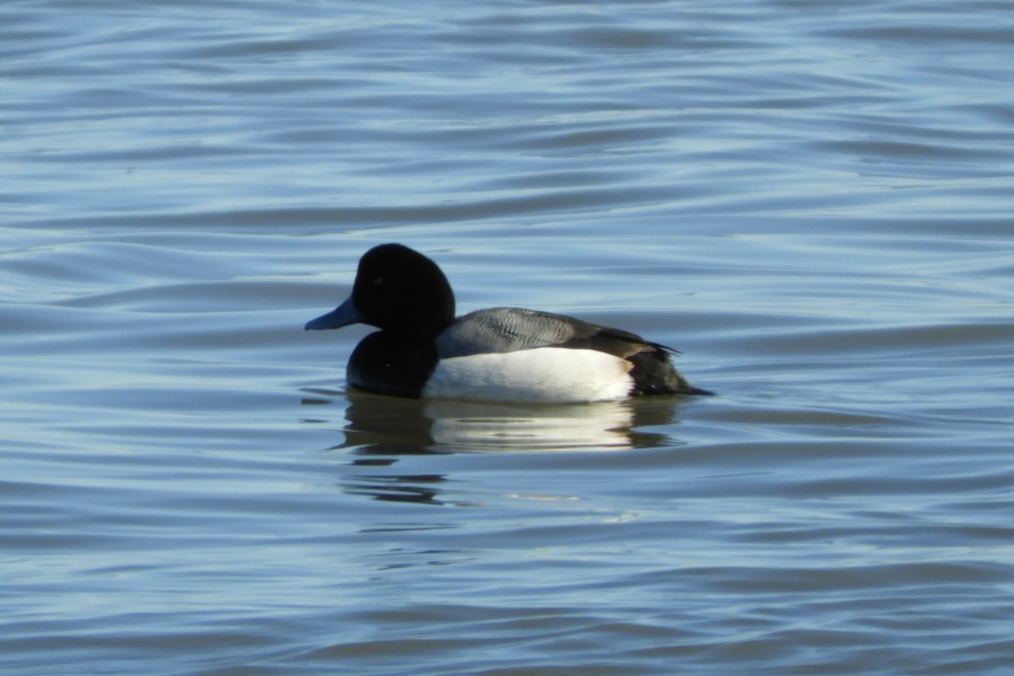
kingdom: Animalia
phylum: Chordata
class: Aves
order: Anseriformes
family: Anatidae
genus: Aythya
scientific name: Aythya marila
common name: Greater scaup
